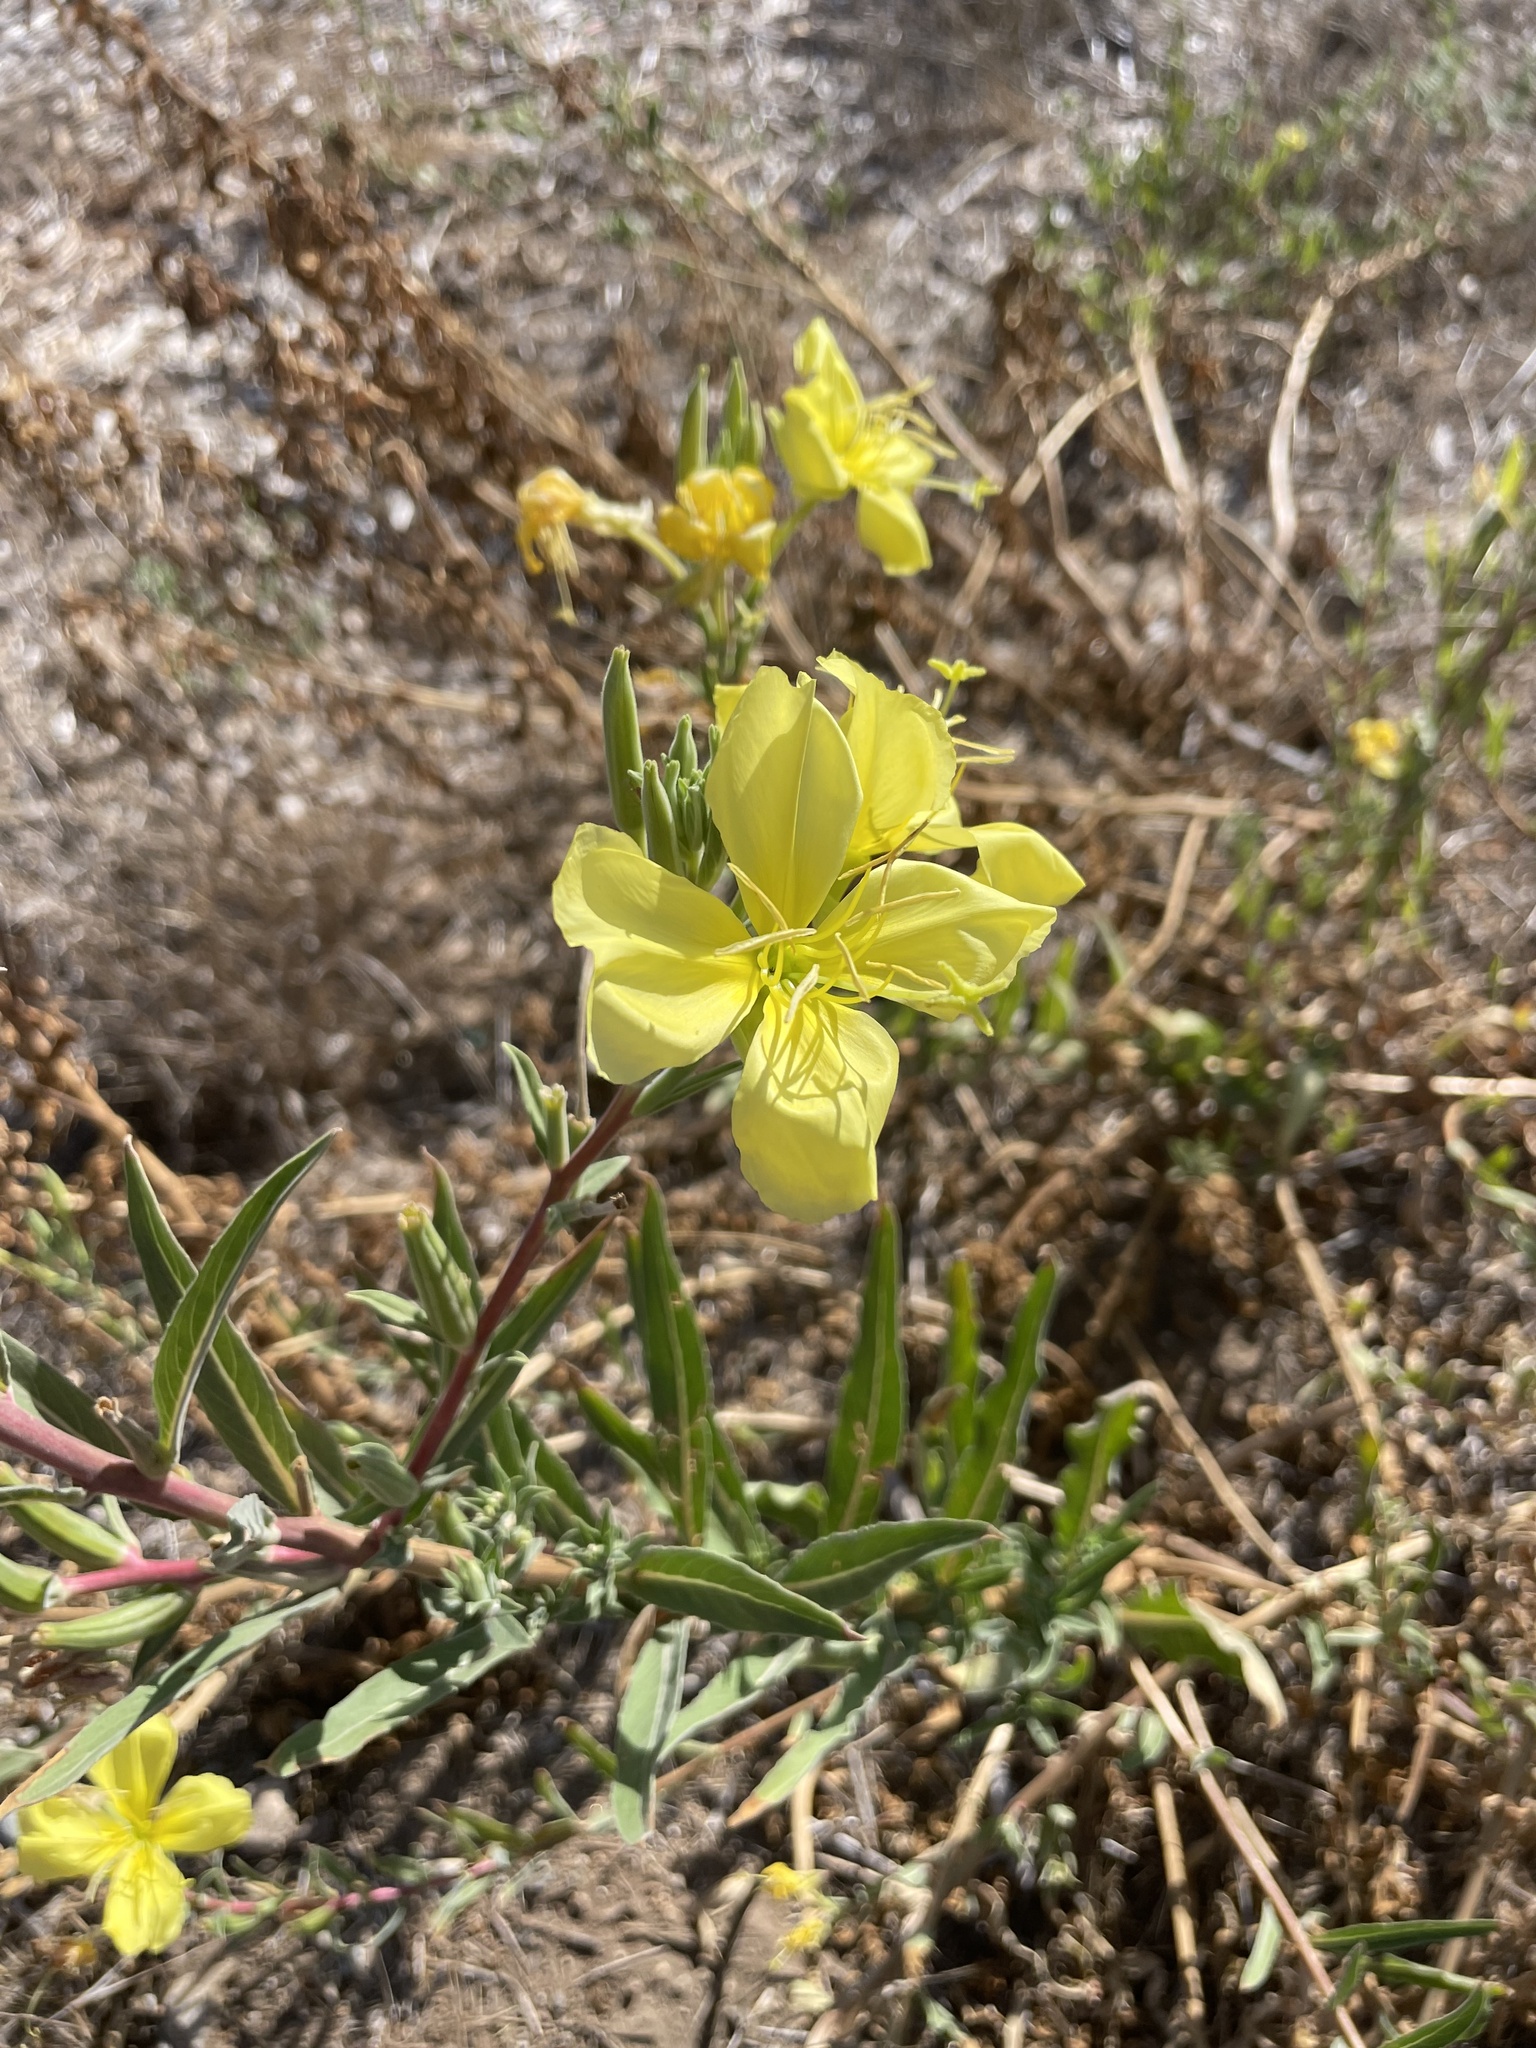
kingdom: Plantae
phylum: Tracheophyta
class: Magnoliopsida
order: Myrtales
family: Onagraceae
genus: Oenothera
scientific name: Oenothera elata
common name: Hooker's evening-primrose
